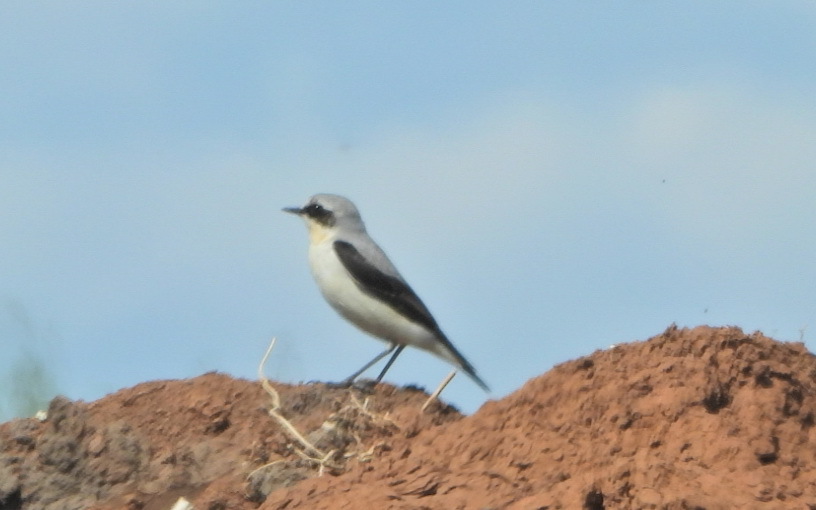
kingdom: Animalia
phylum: Chordata
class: Aves
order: Passeriformes
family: Muscicapidae
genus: Oenanthe
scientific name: Oenanthe oenanthe
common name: Northern wheatear
